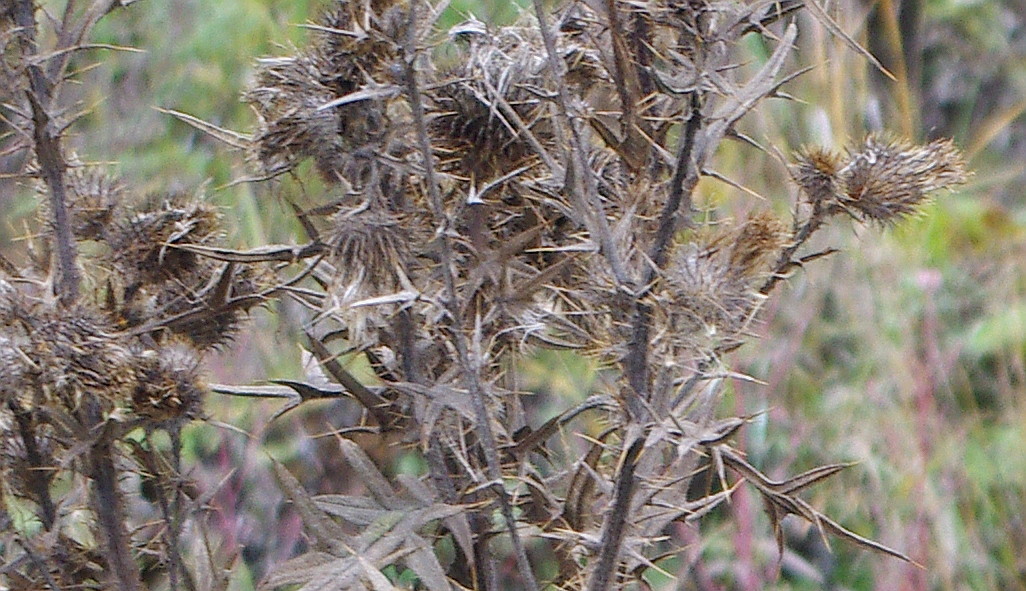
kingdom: Plantae
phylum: Tracheophyta
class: Magnoliopsida
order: Asterales
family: Asteraceae
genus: Cirsium
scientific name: Cirsium vulgare
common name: Bull thistle
